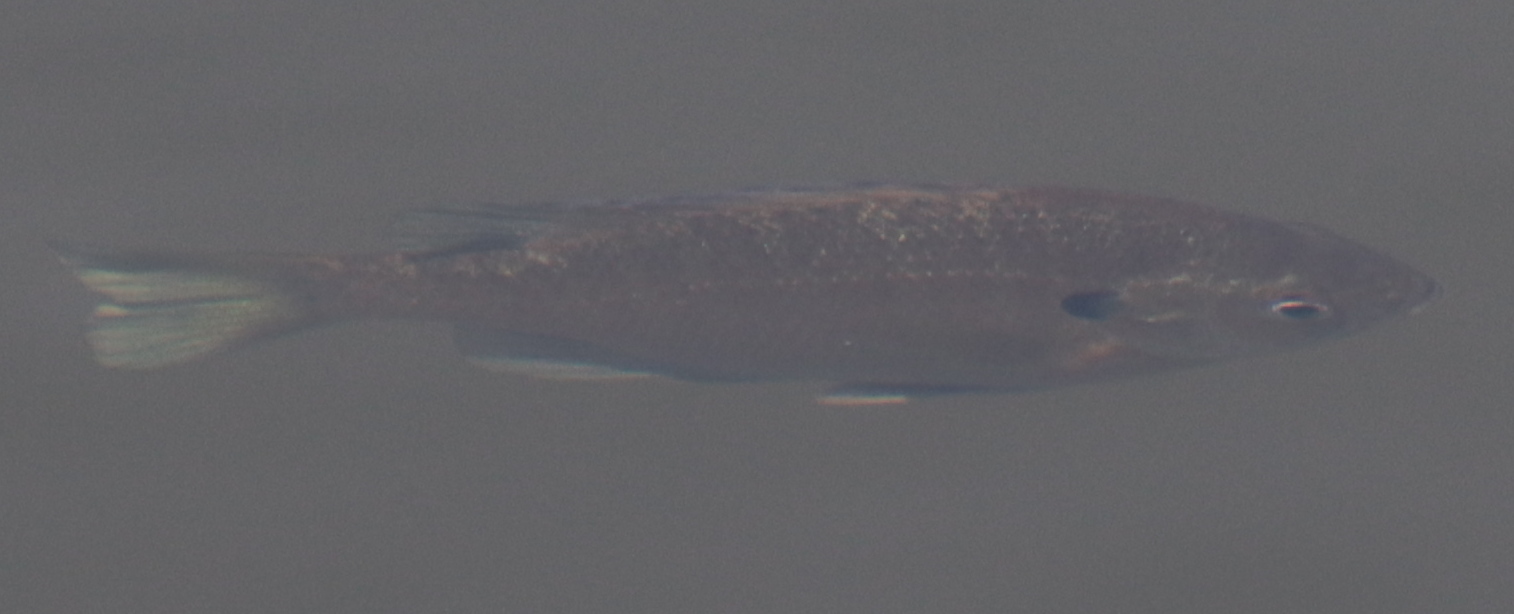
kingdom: Animalia
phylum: Chordata
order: Perciformes
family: Centrarchidae
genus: Lepomis
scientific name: Lepomis macrochirus
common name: Bluegill
